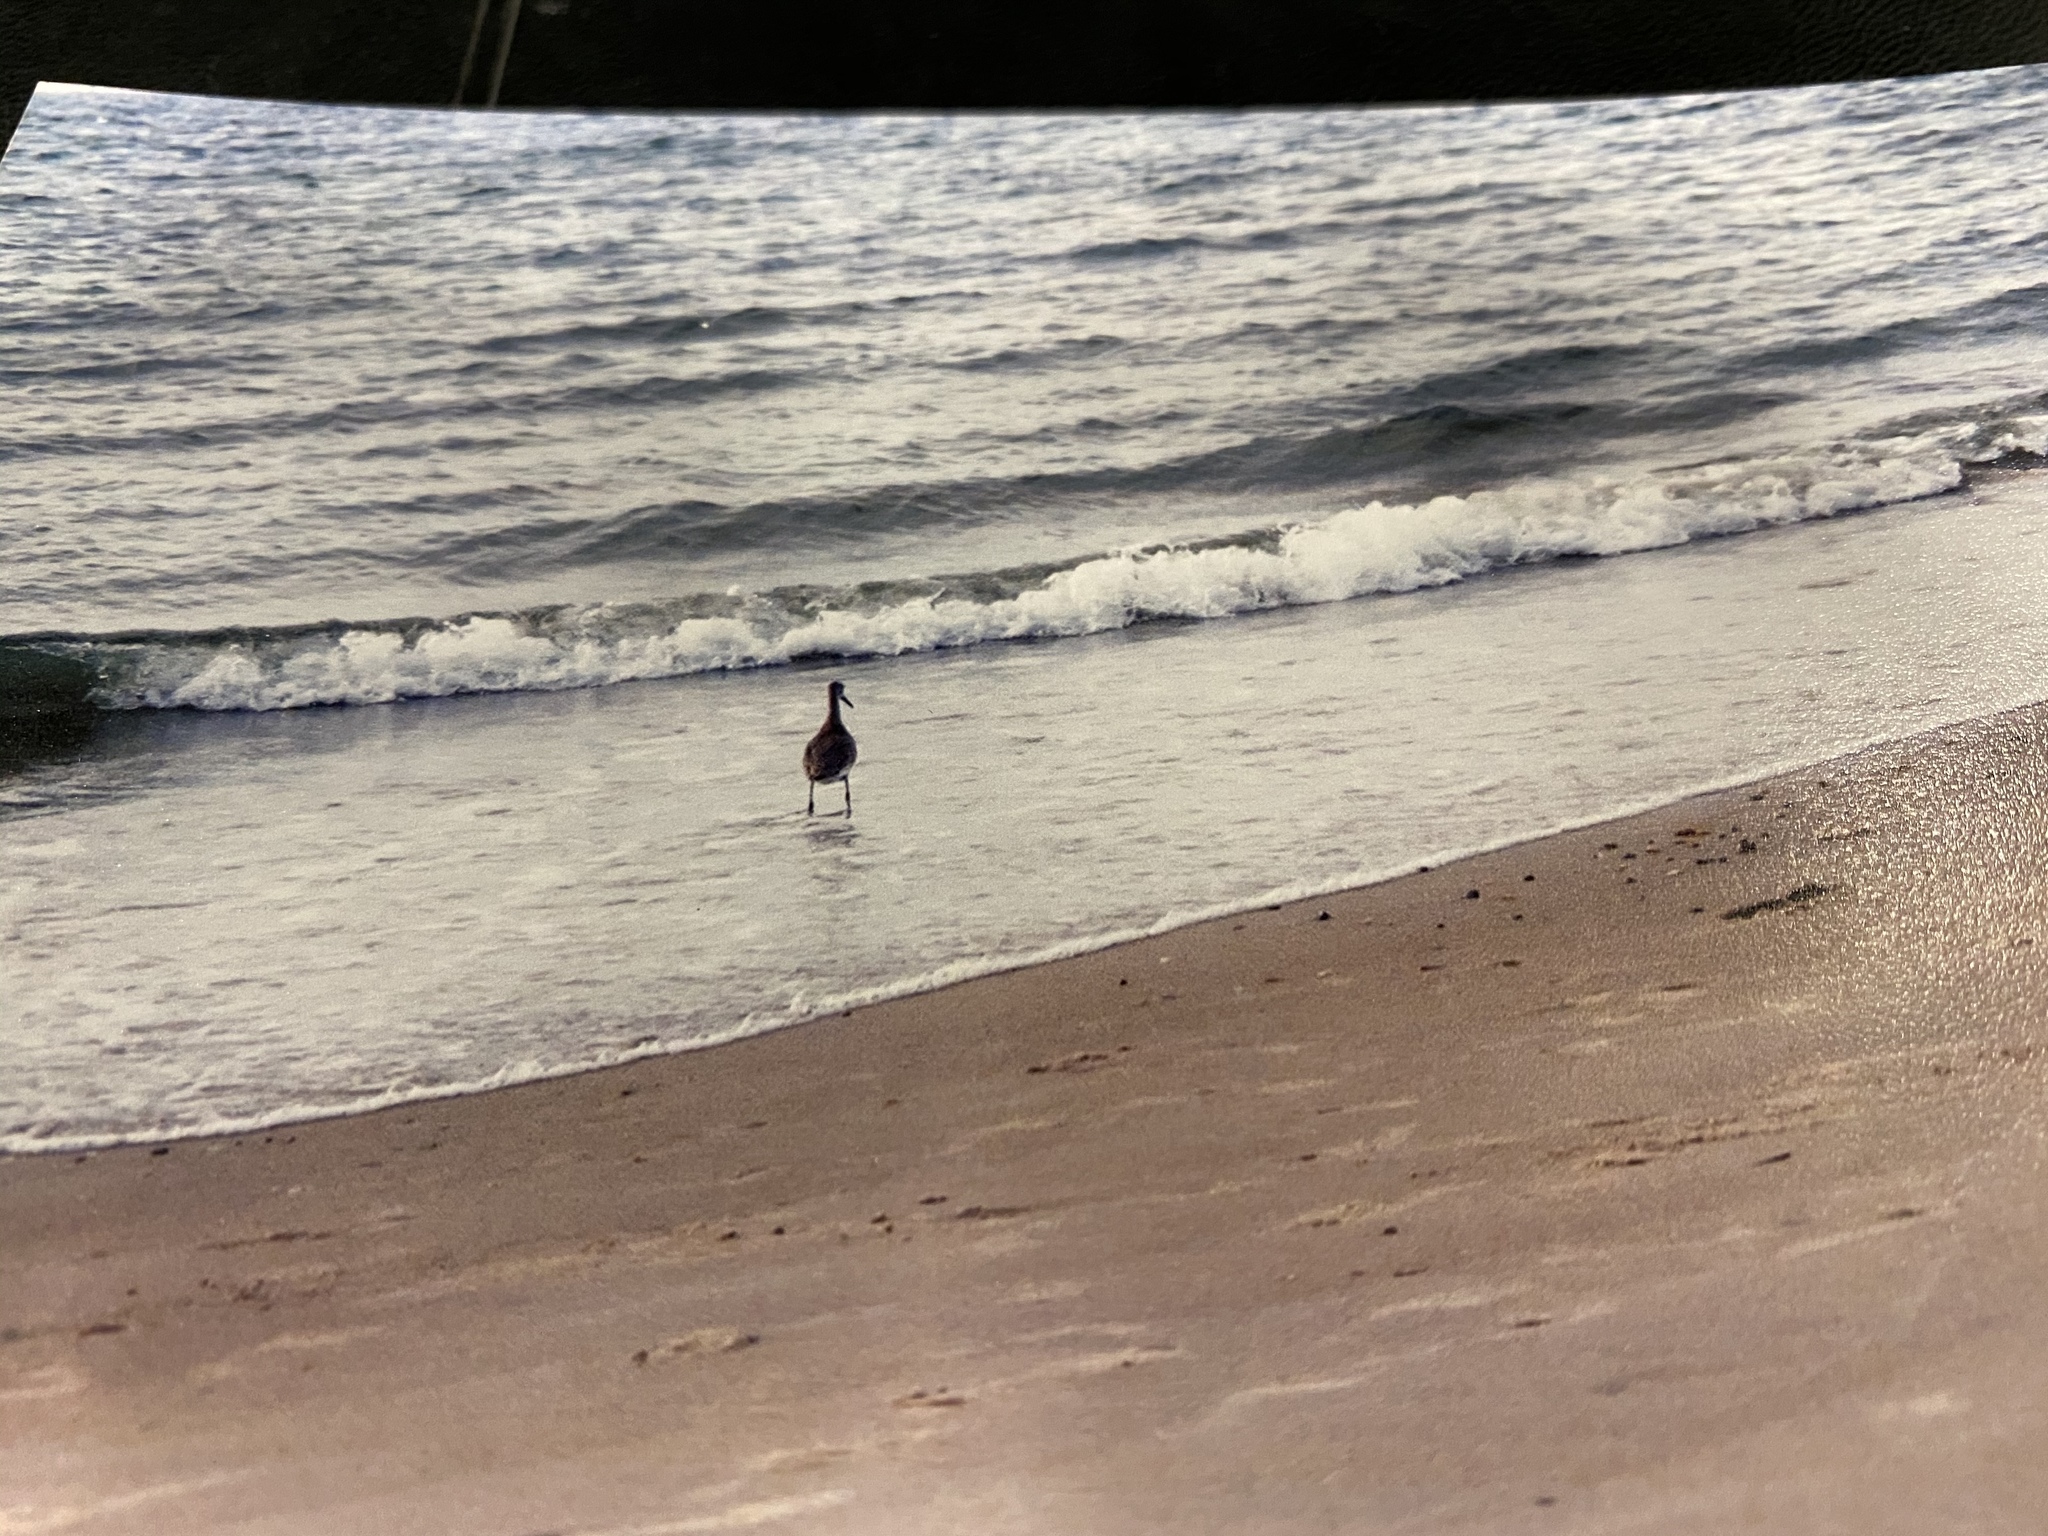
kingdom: Animalia
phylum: Chordata
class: Aves
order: Charadriiformes
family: Scolopacidae
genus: Tringa
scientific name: Tringa semipalmata
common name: Willet
